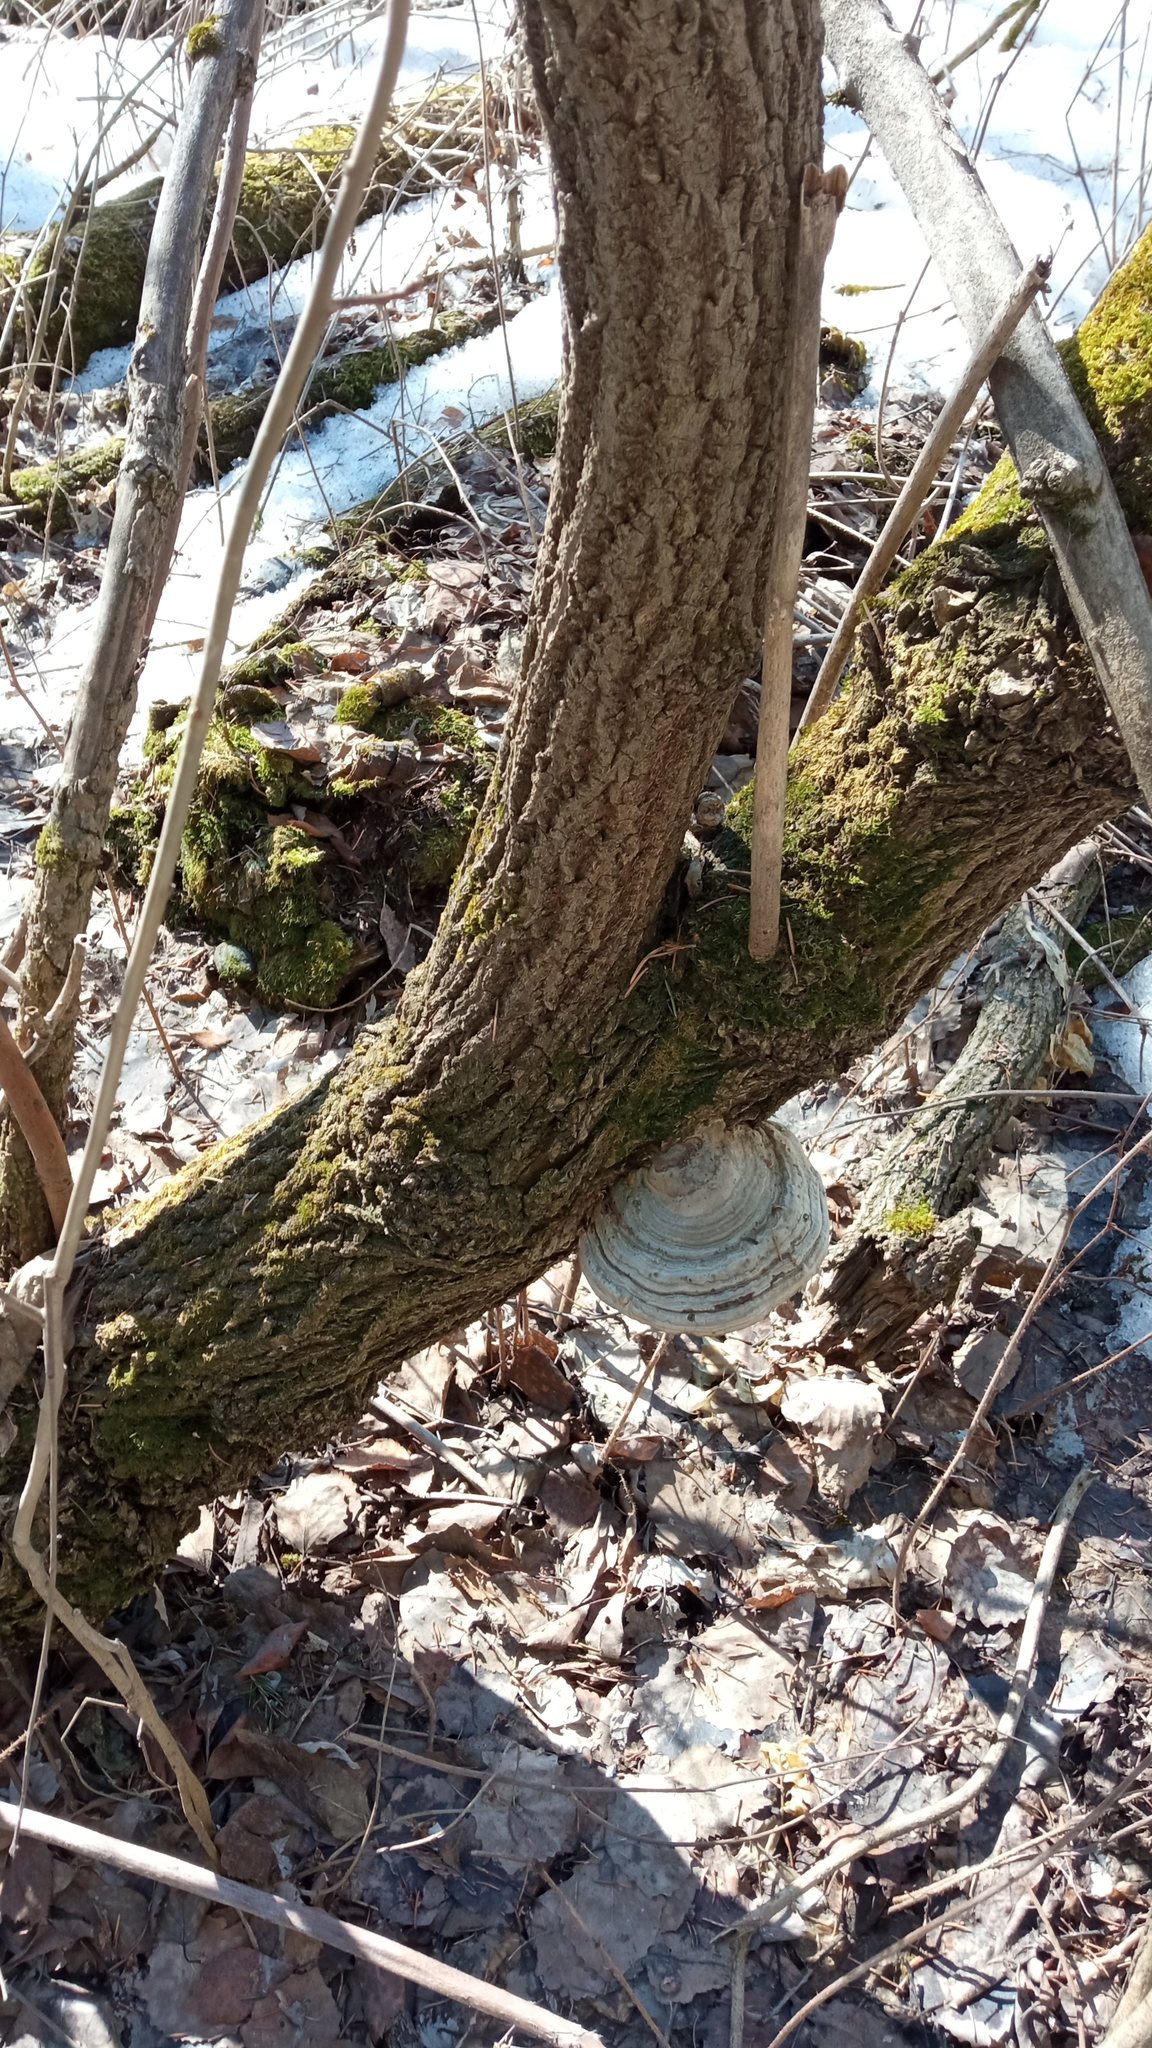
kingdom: Fungi
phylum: Basidiomycota
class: Agaricomycetes
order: Polyporales
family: Polyporaceae
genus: Fomes
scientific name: Fomes fomentarius
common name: Hoof fungus
